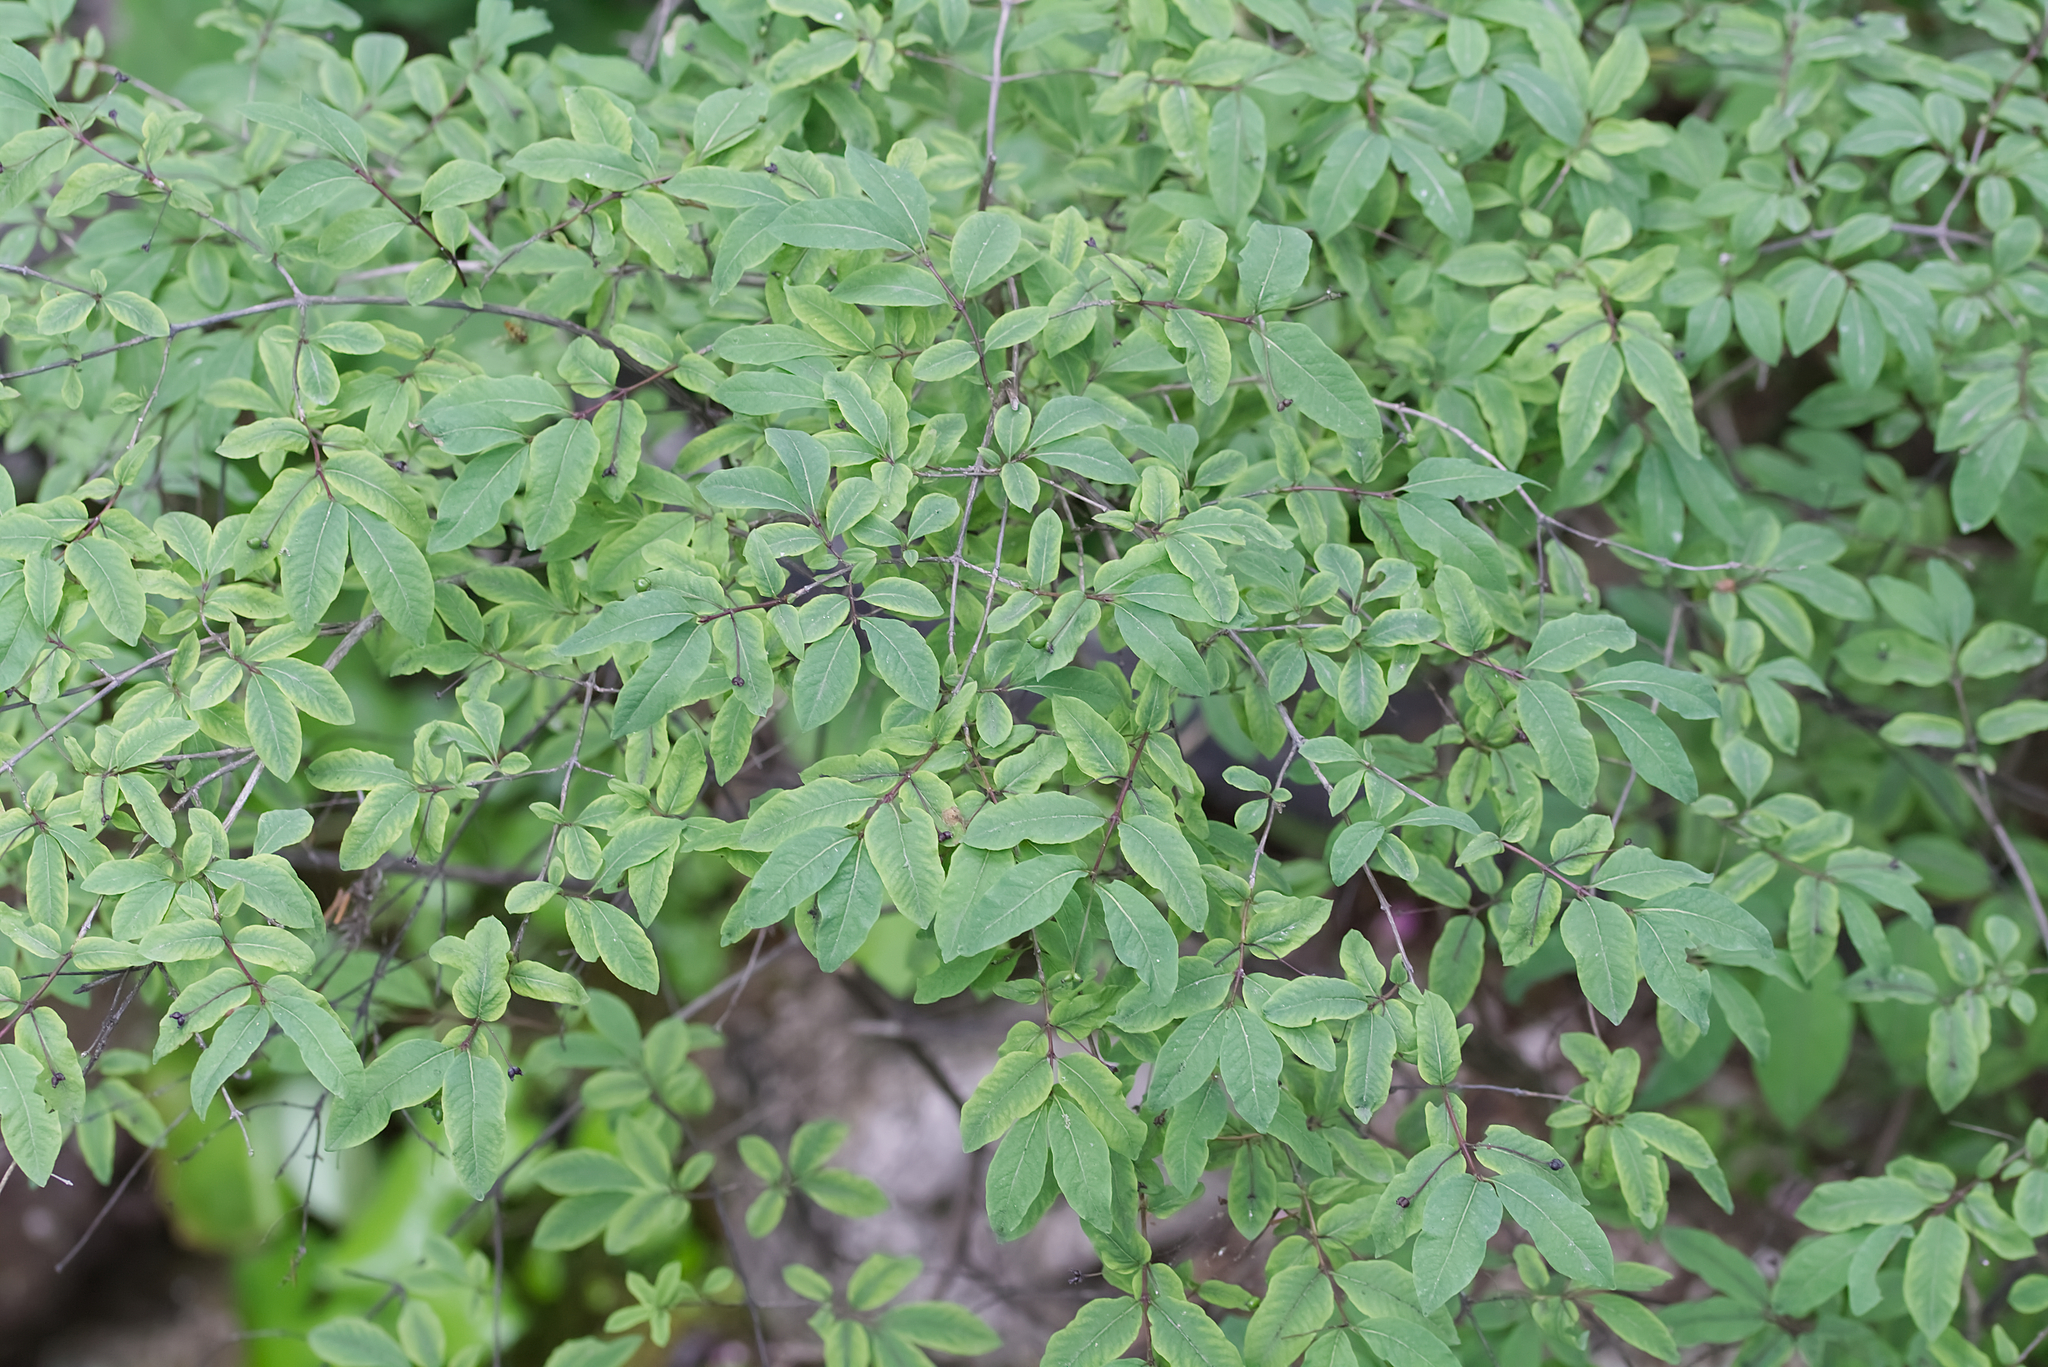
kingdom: Plantae
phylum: Tracheophyta
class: Magnoliopsida
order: Dipsacales
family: Caprifoliaceae
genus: Lonicera
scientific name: Lonicera nigra
